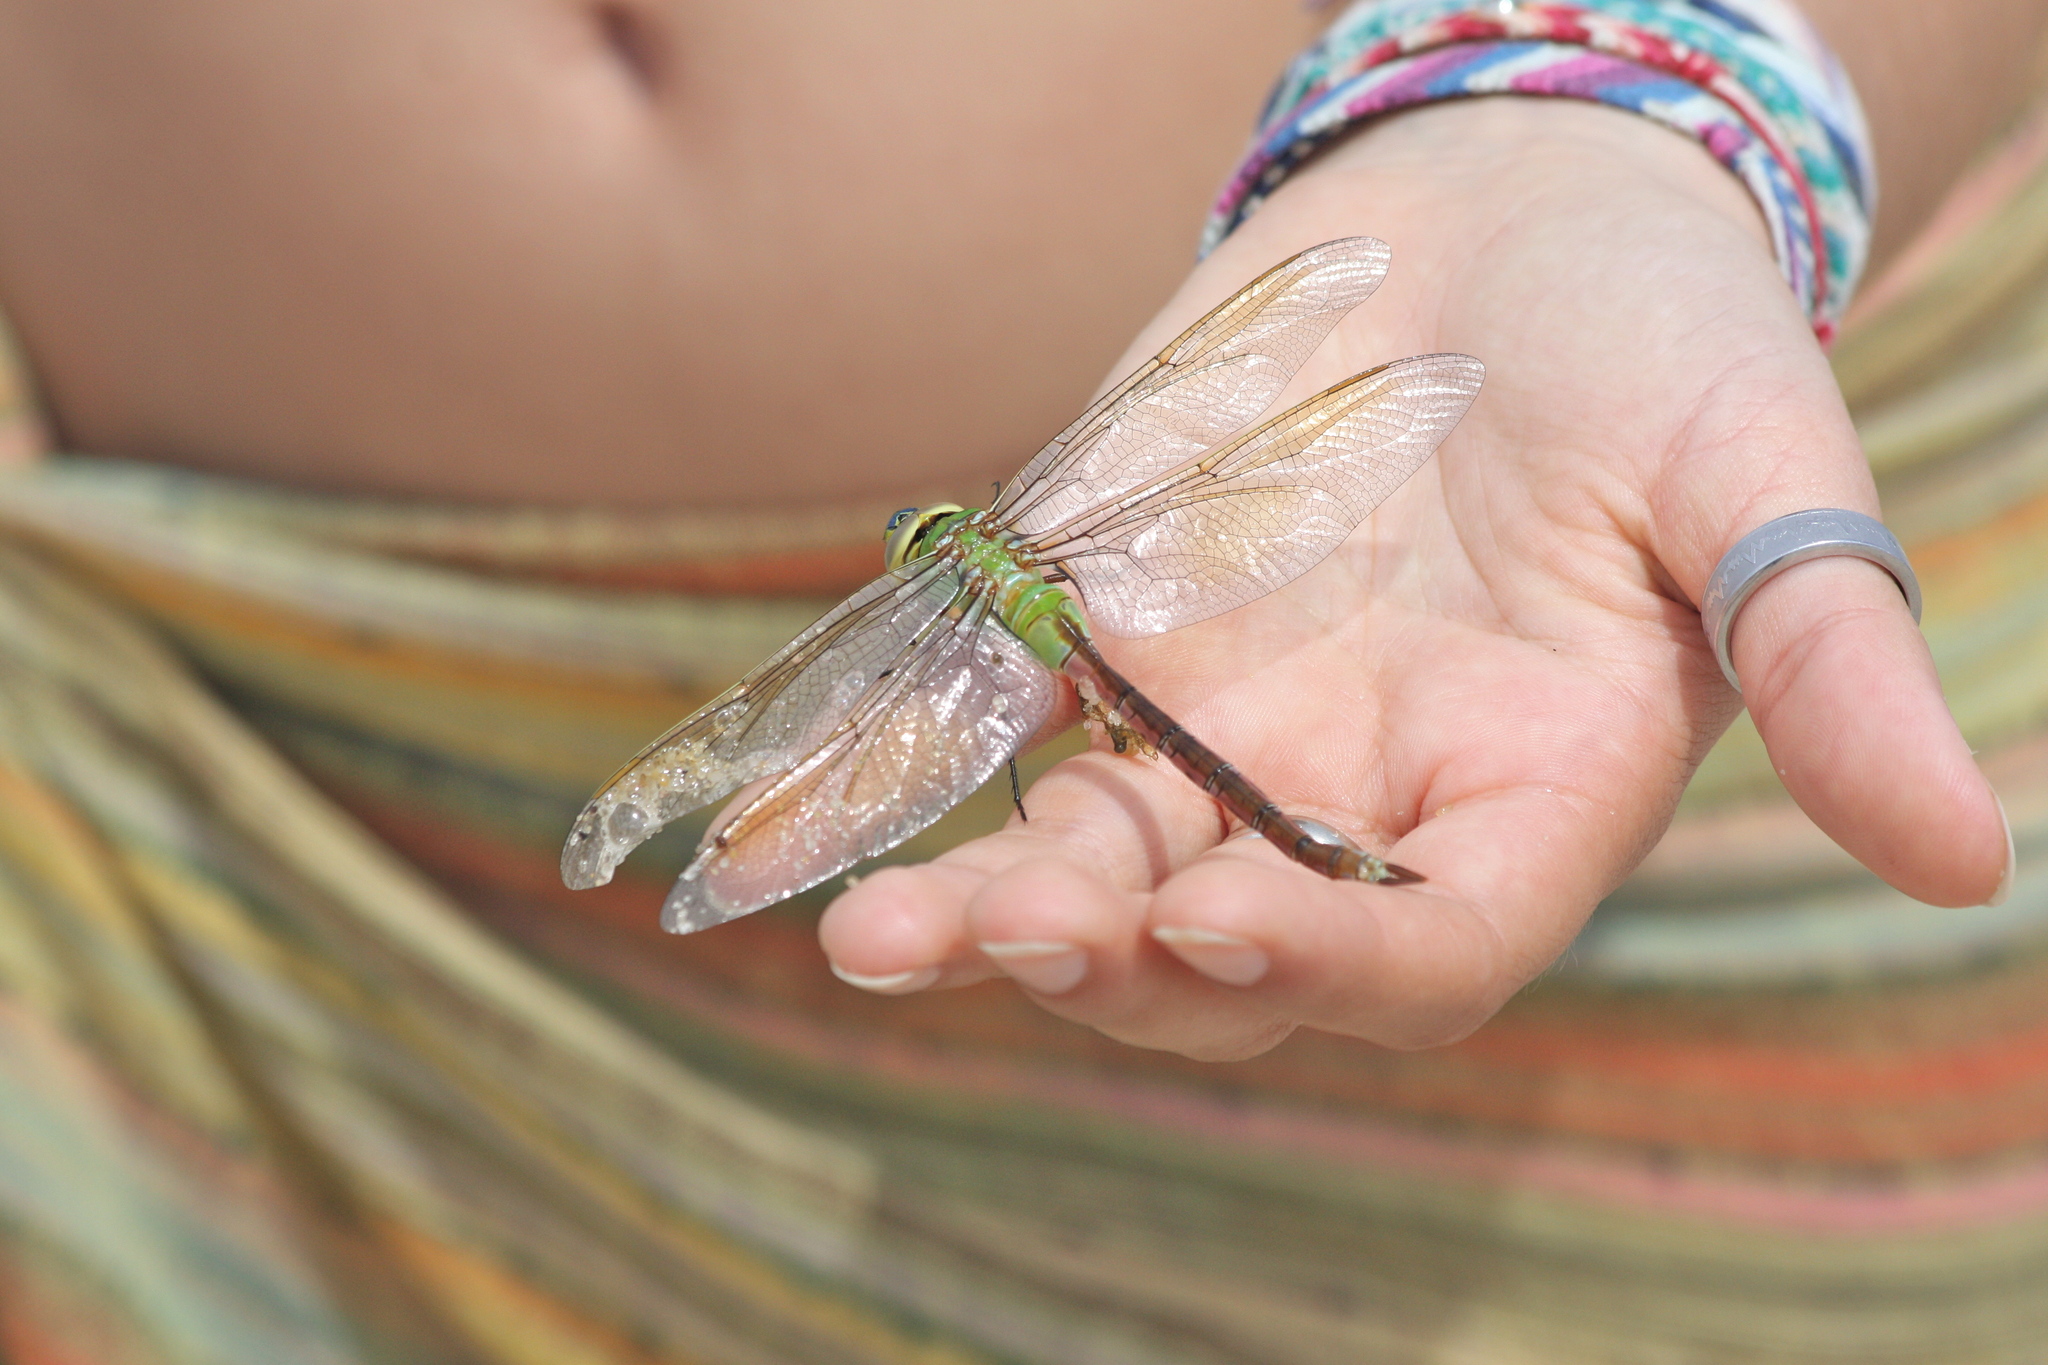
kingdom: Animalia
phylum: Arthropoda
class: Insecta
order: Odonata
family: Aeshnidae
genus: Anax
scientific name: Anax junius
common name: Common green darner
